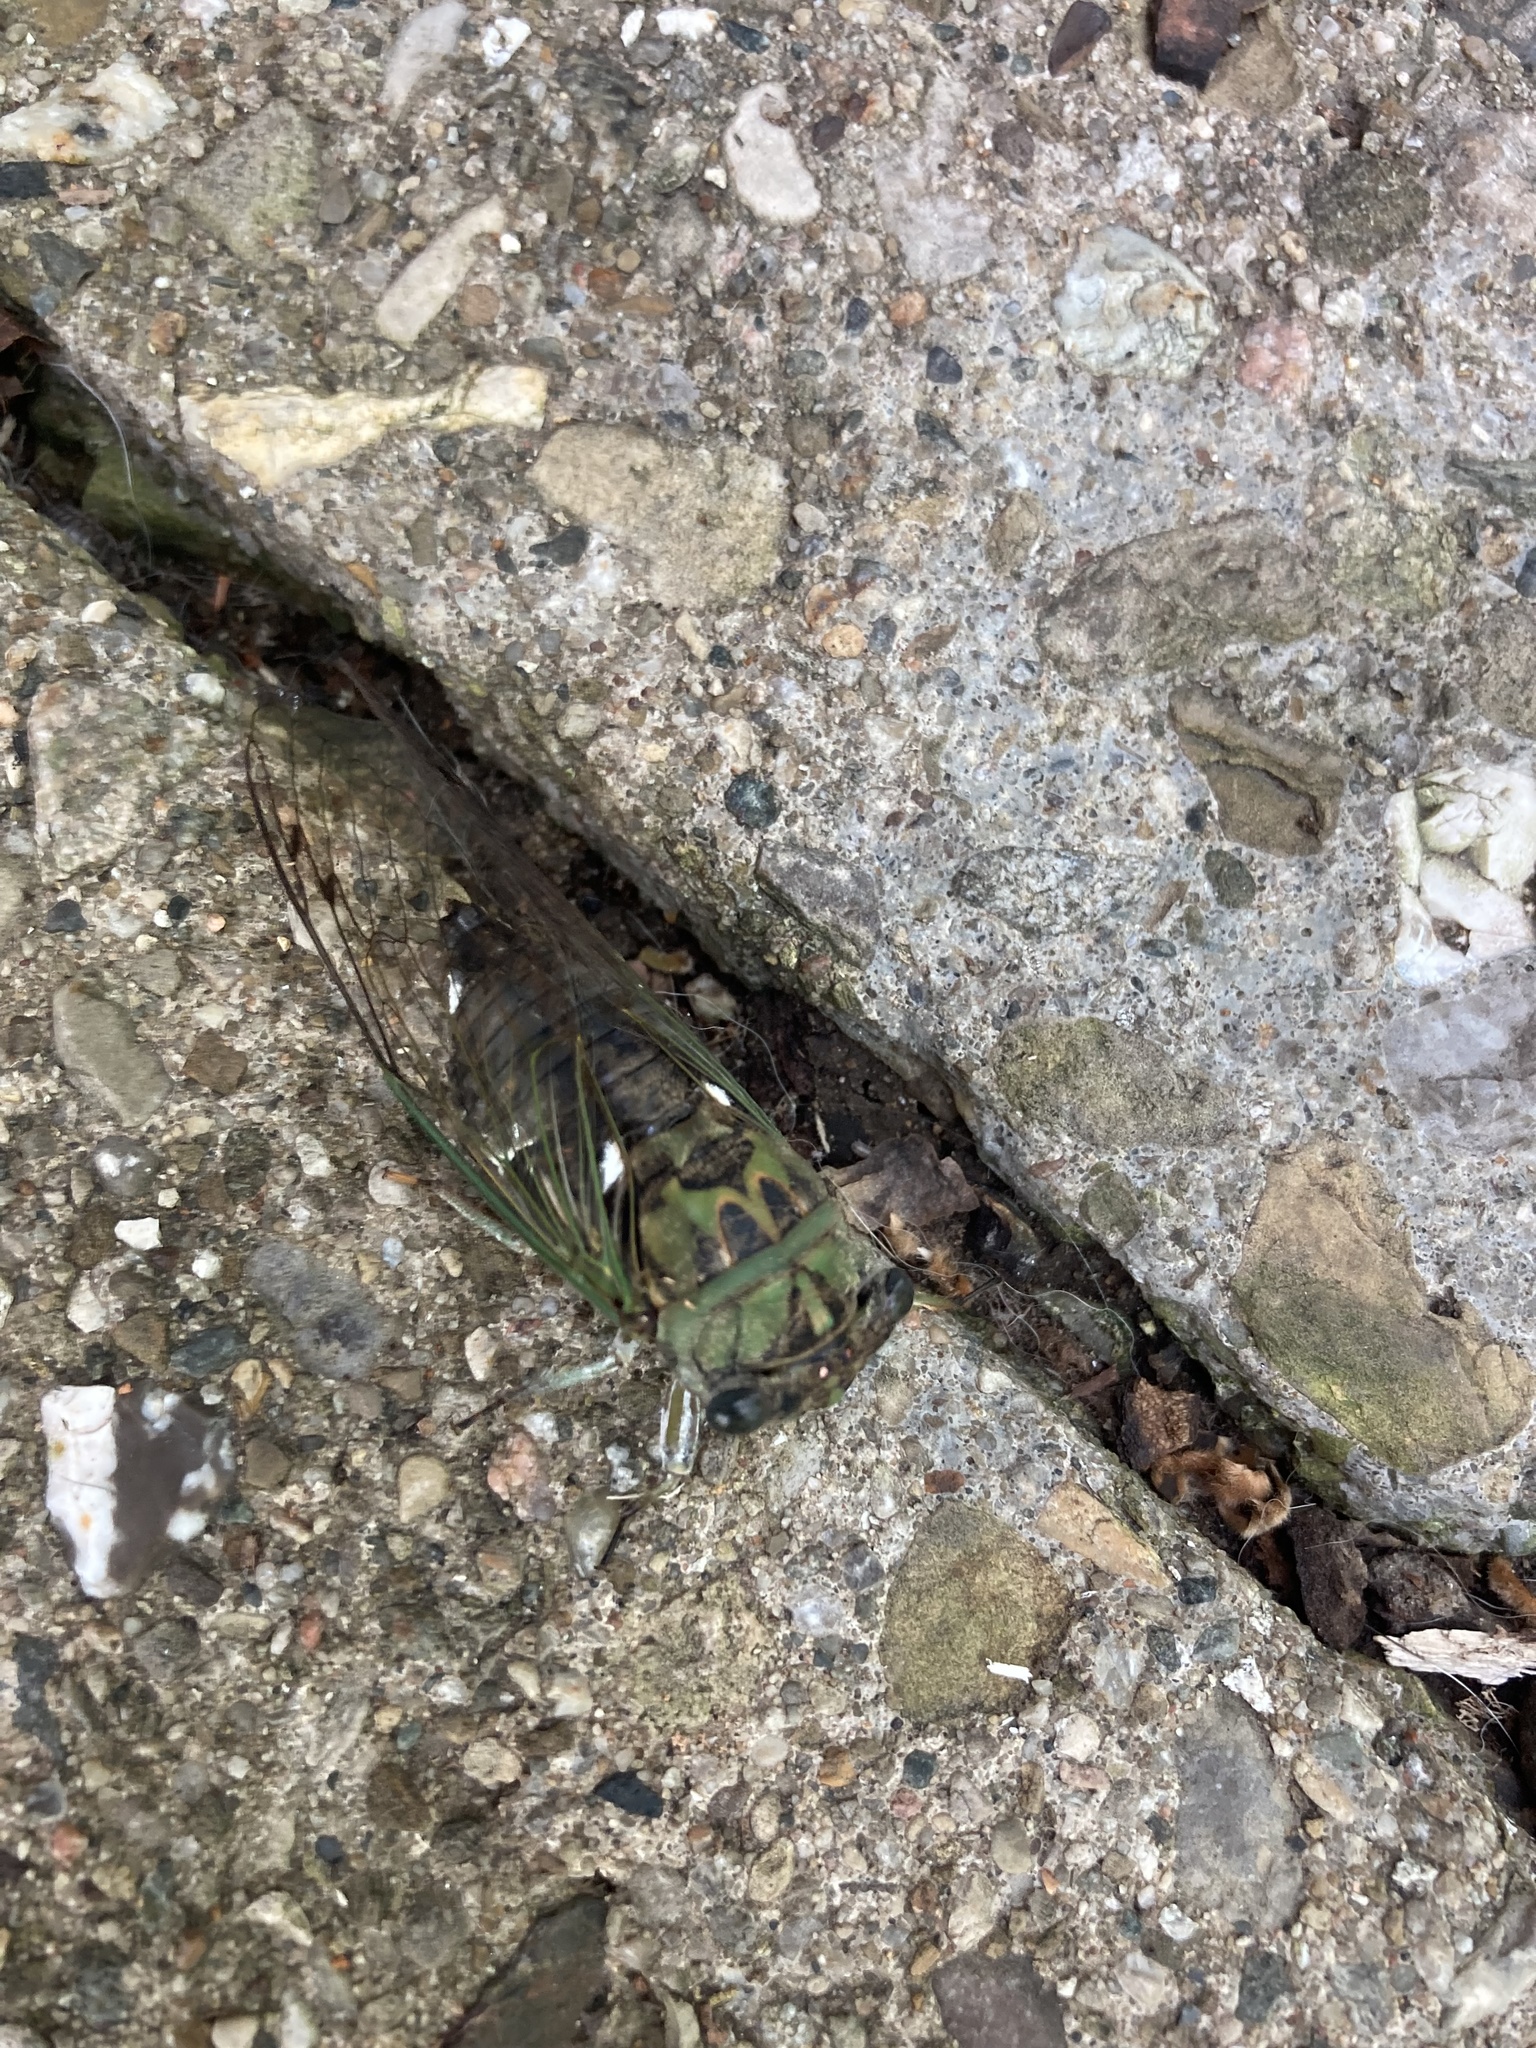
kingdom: Animalia
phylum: Arthropoda
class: Insecta
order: Hemiptera
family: Cicadidae
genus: Neotibicen
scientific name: Neotibicen pruinosus
